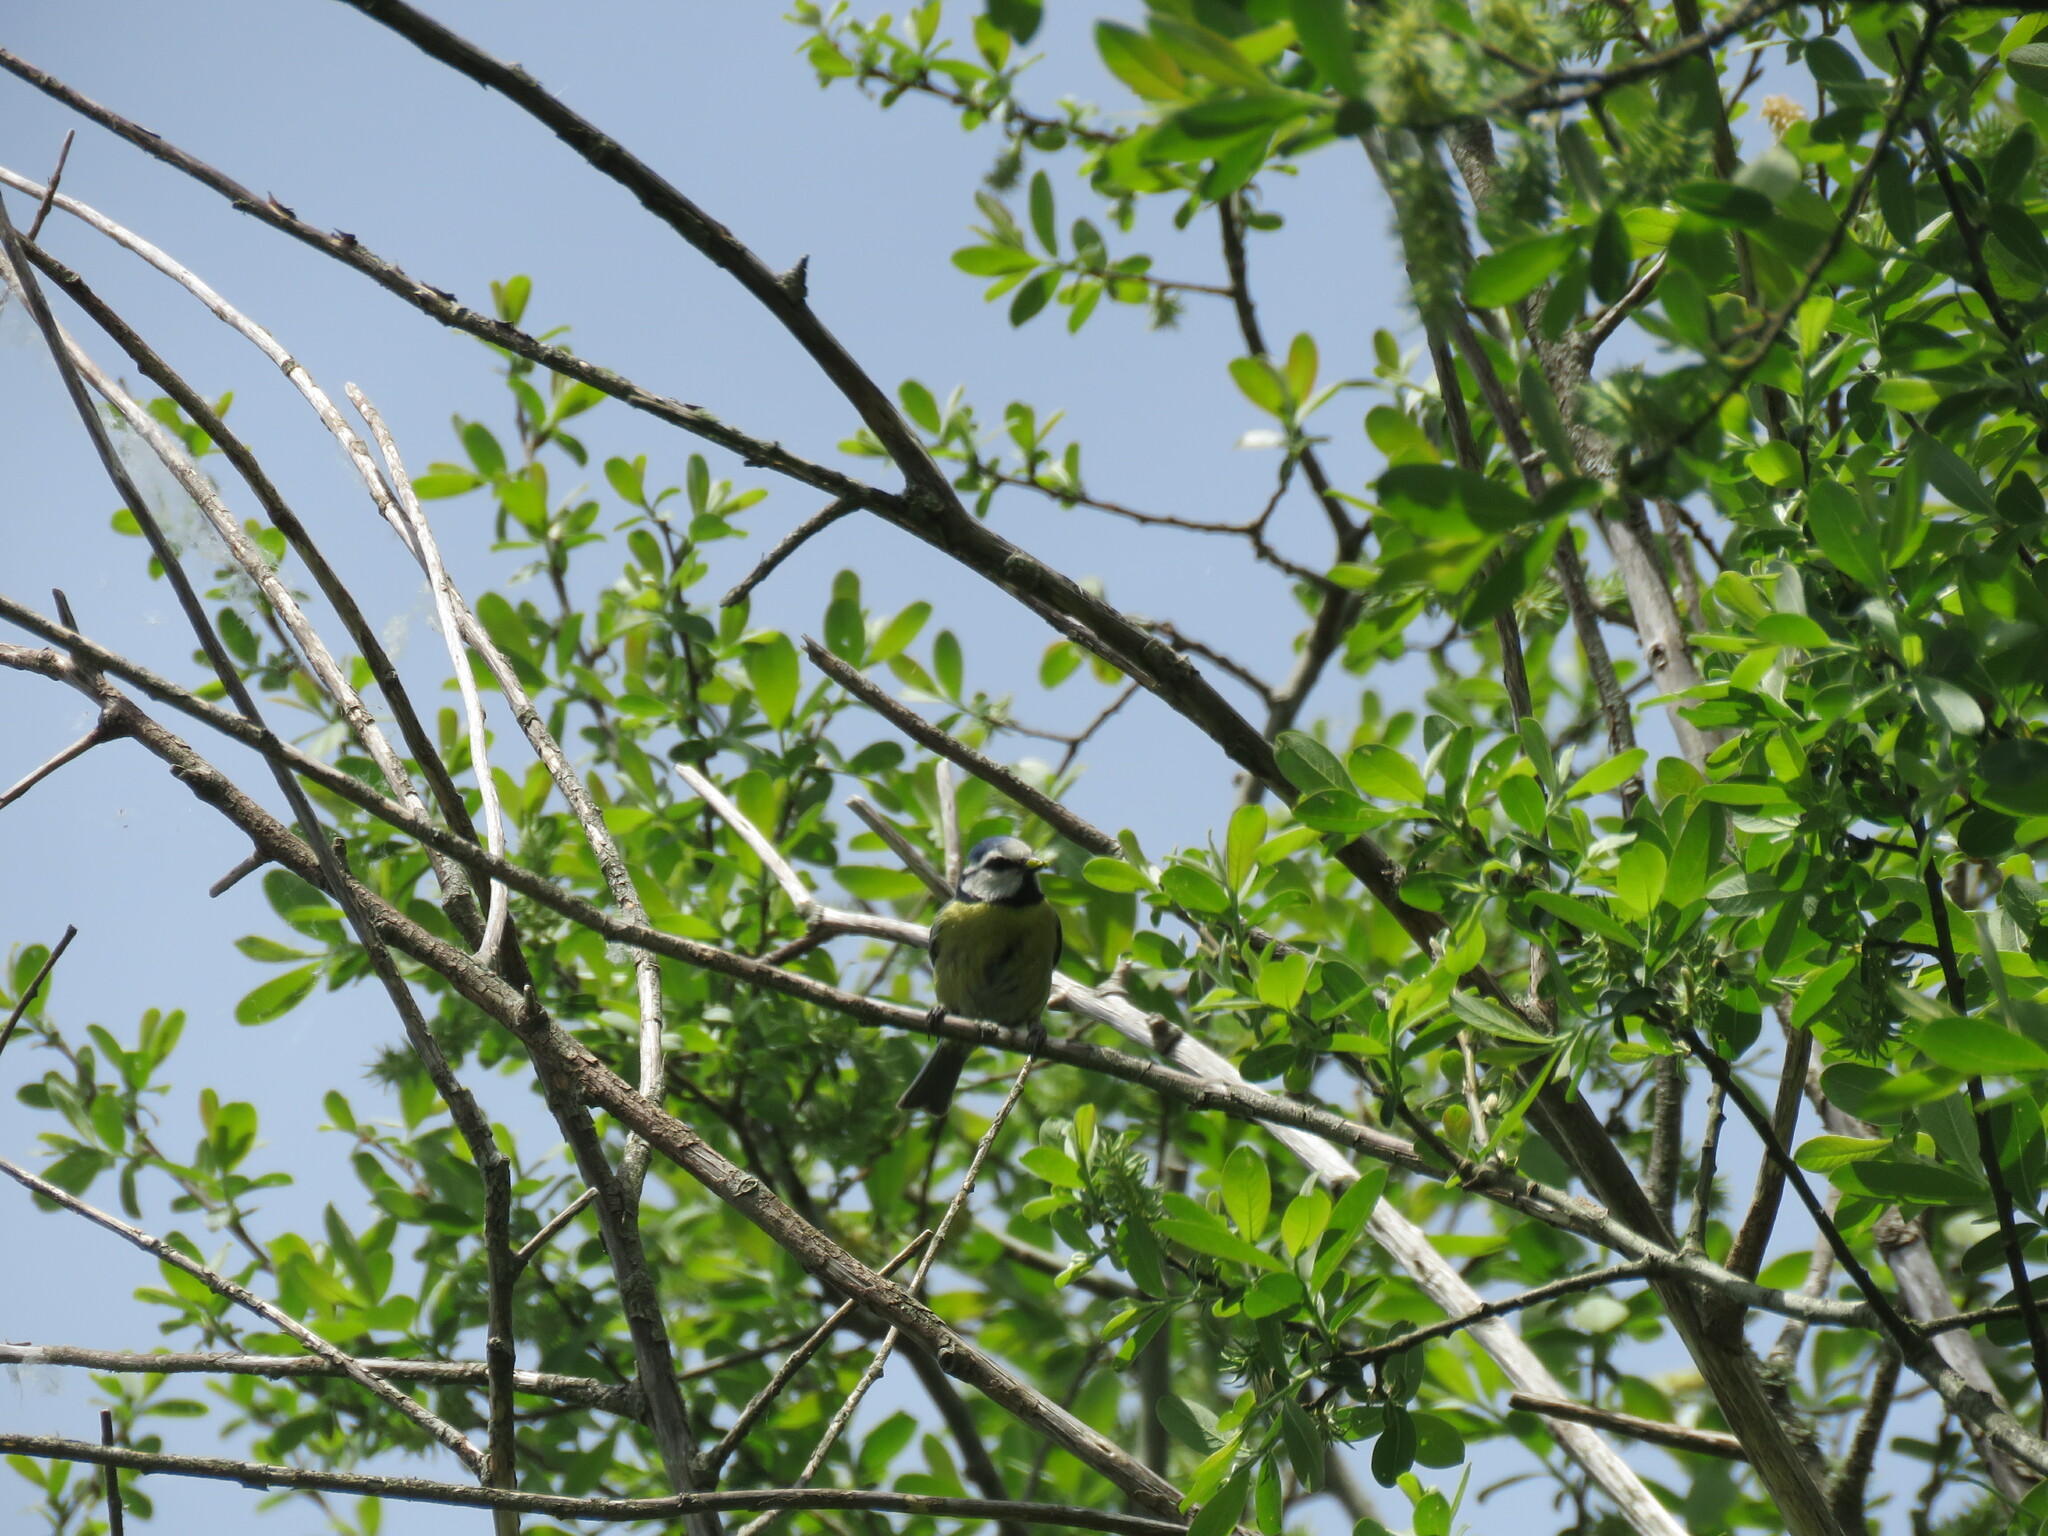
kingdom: Animalia
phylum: Chordata
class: Aves
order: Passeriformes
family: Paridae
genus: Cyanistes
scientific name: Cyanistes caeruleus
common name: Eurasian blue tit
